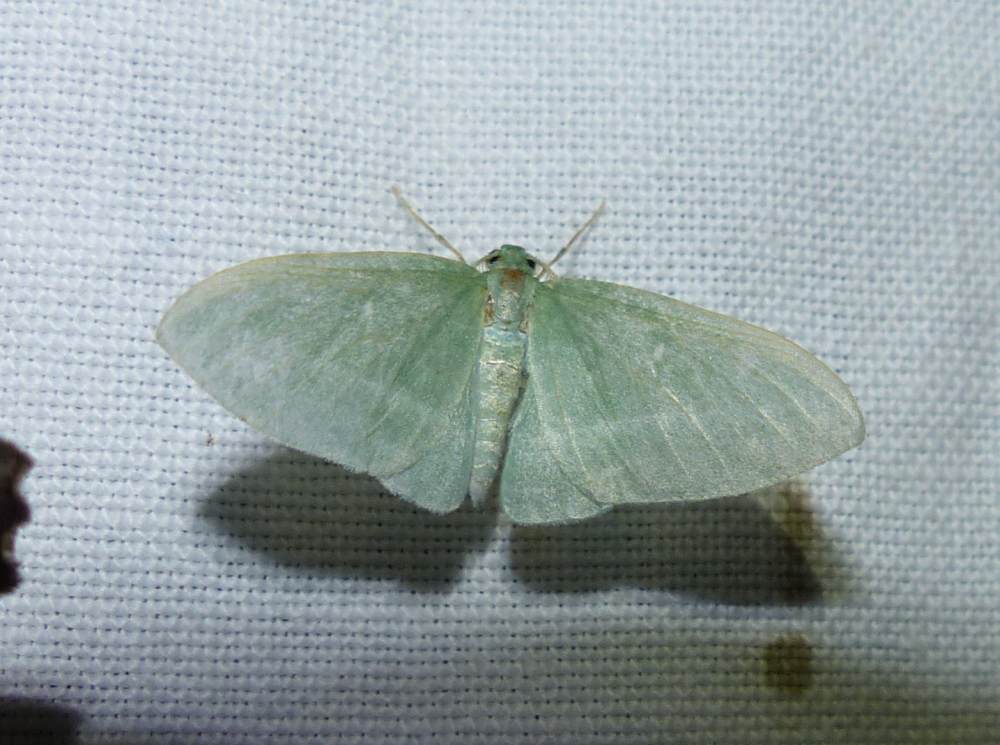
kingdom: Animalia
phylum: Arthropoda
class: Insecta
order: Lepidoptera
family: Geometridae
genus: Dyspteris
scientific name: Dyspteris abortivaria
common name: Bad-wing
